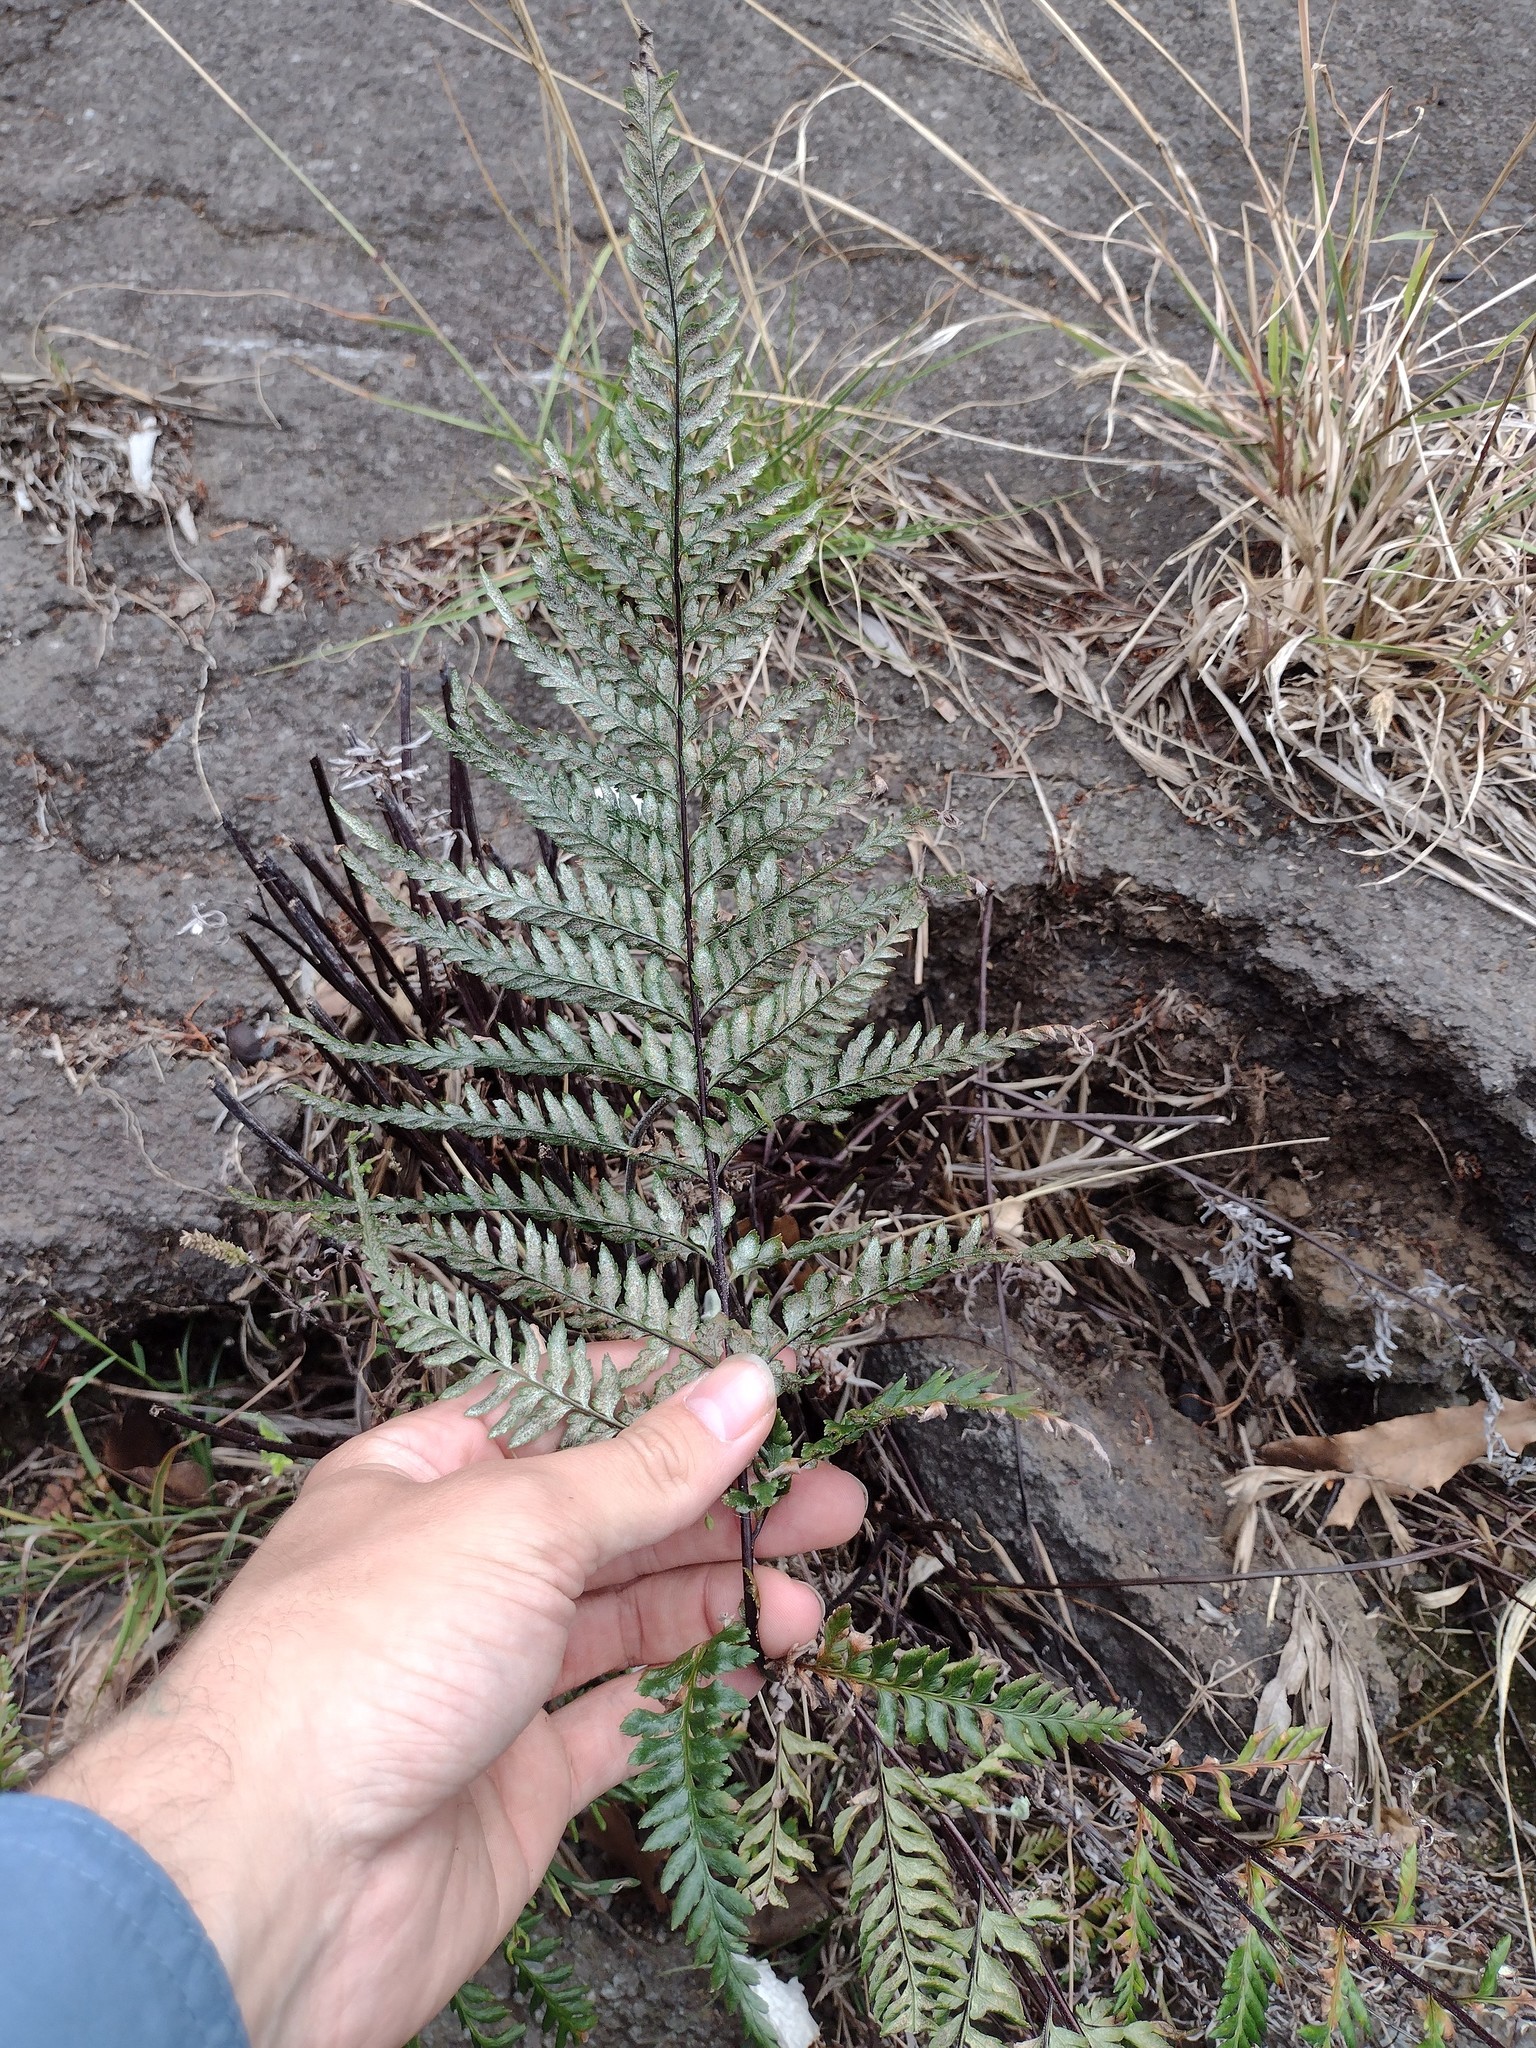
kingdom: Plantae
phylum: Tracheophyta
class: Polypodiopsida
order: Polypodiales
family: Pteridaceae
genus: Pityrogramma
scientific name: Pityrogramma calomelanos
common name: Dixie silverback fern
